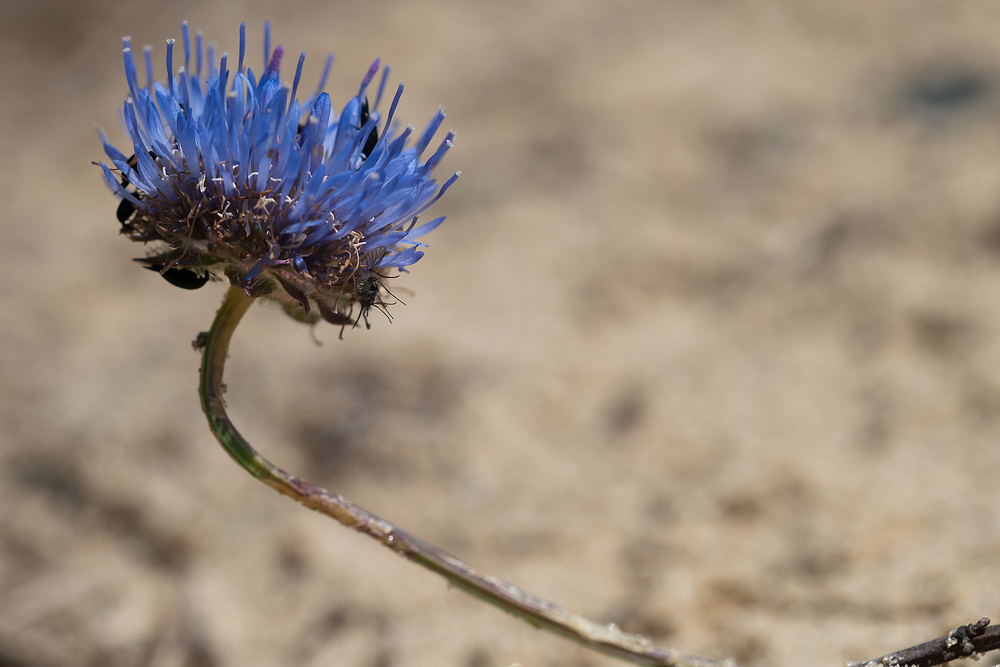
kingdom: Plantae
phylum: Tracheophyta
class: Magnoliopsida
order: Asterales
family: Campanulaceae
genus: Jasione
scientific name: Jasione montana
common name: Sheep's-bit
